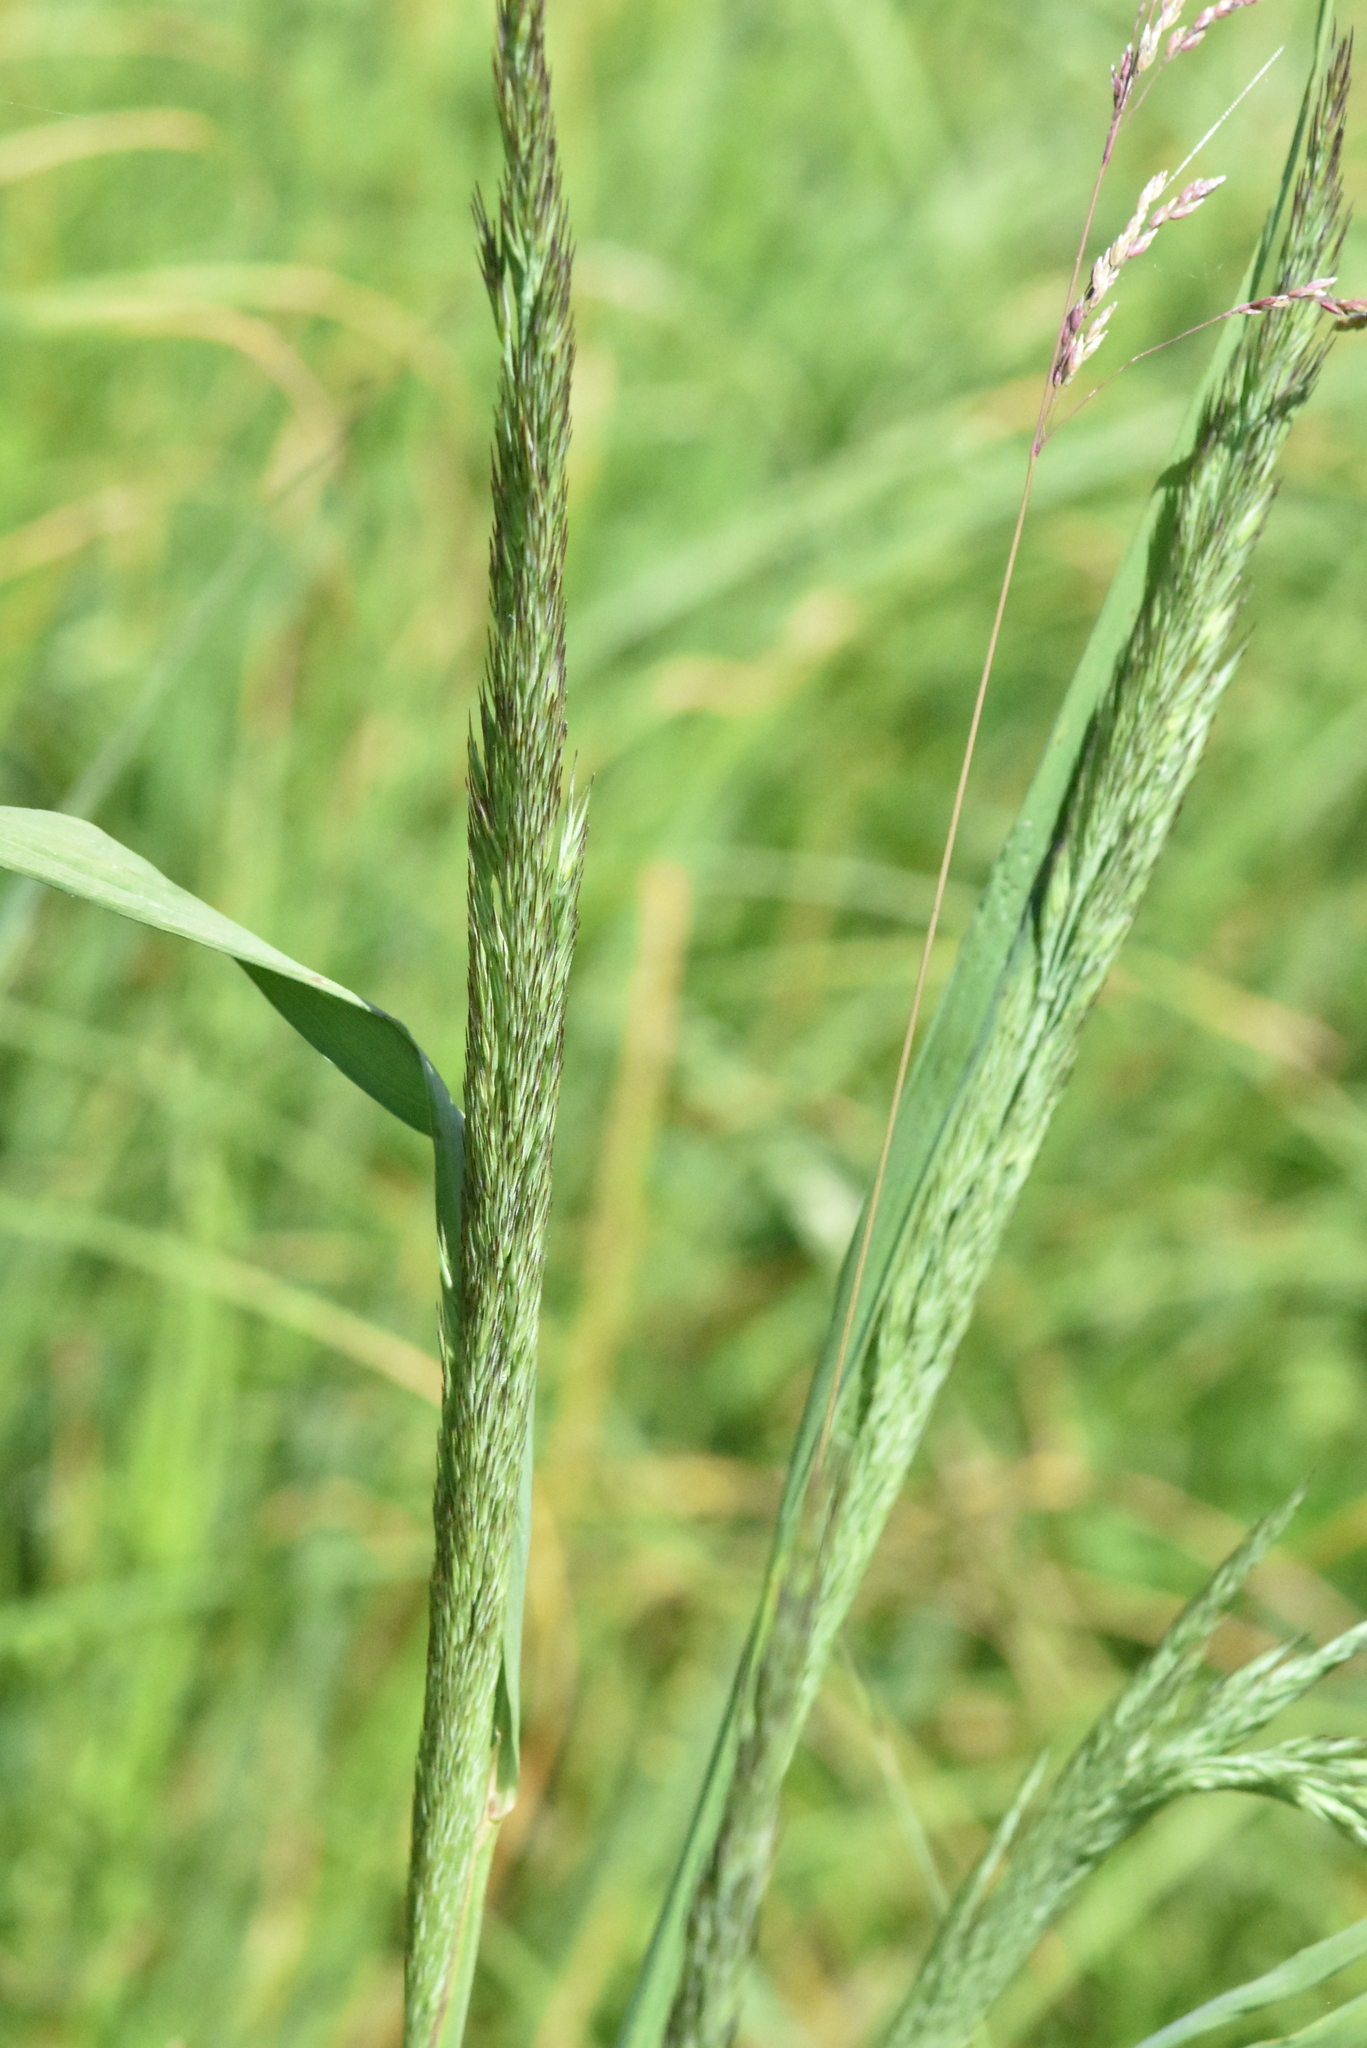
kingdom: Plantae
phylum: Tracheophyta
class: Liliopsida
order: Poales
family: Poaceae
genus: Phalaris
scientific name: Phalaris arundinacea
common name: Reed canary-grass
